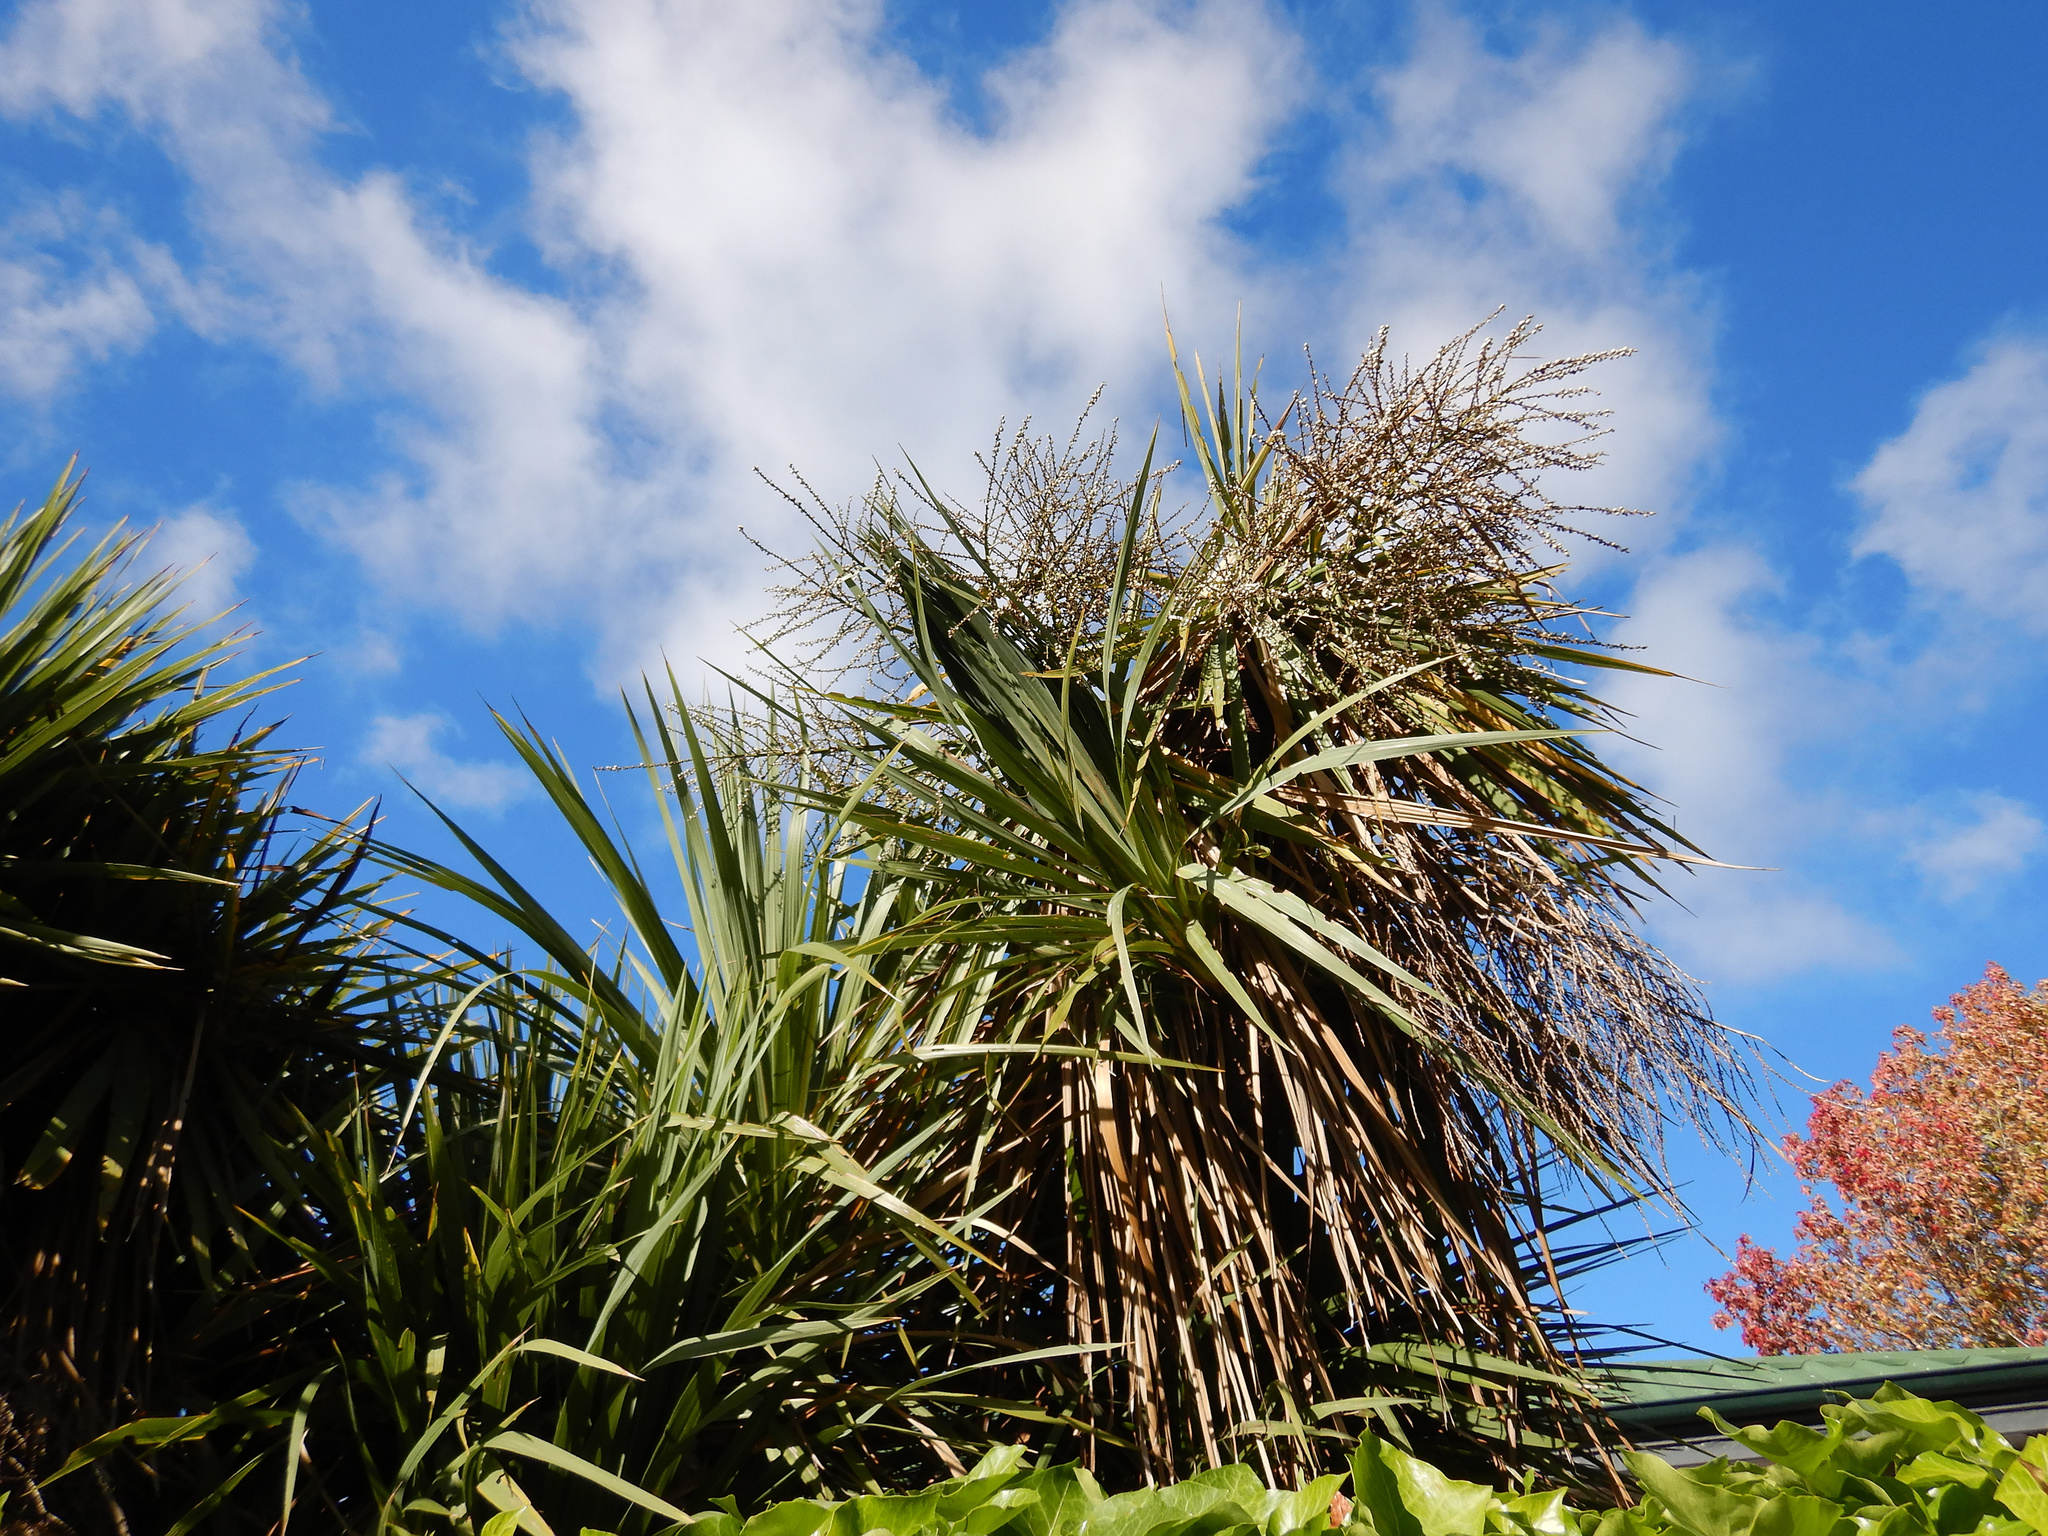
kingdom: Plantae
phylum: Tracheophyta
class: Liliopsida
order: Asparagales
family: Asparagaceae
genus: Cordyline
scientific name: Cordyline australis
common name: Cabbage-palm
